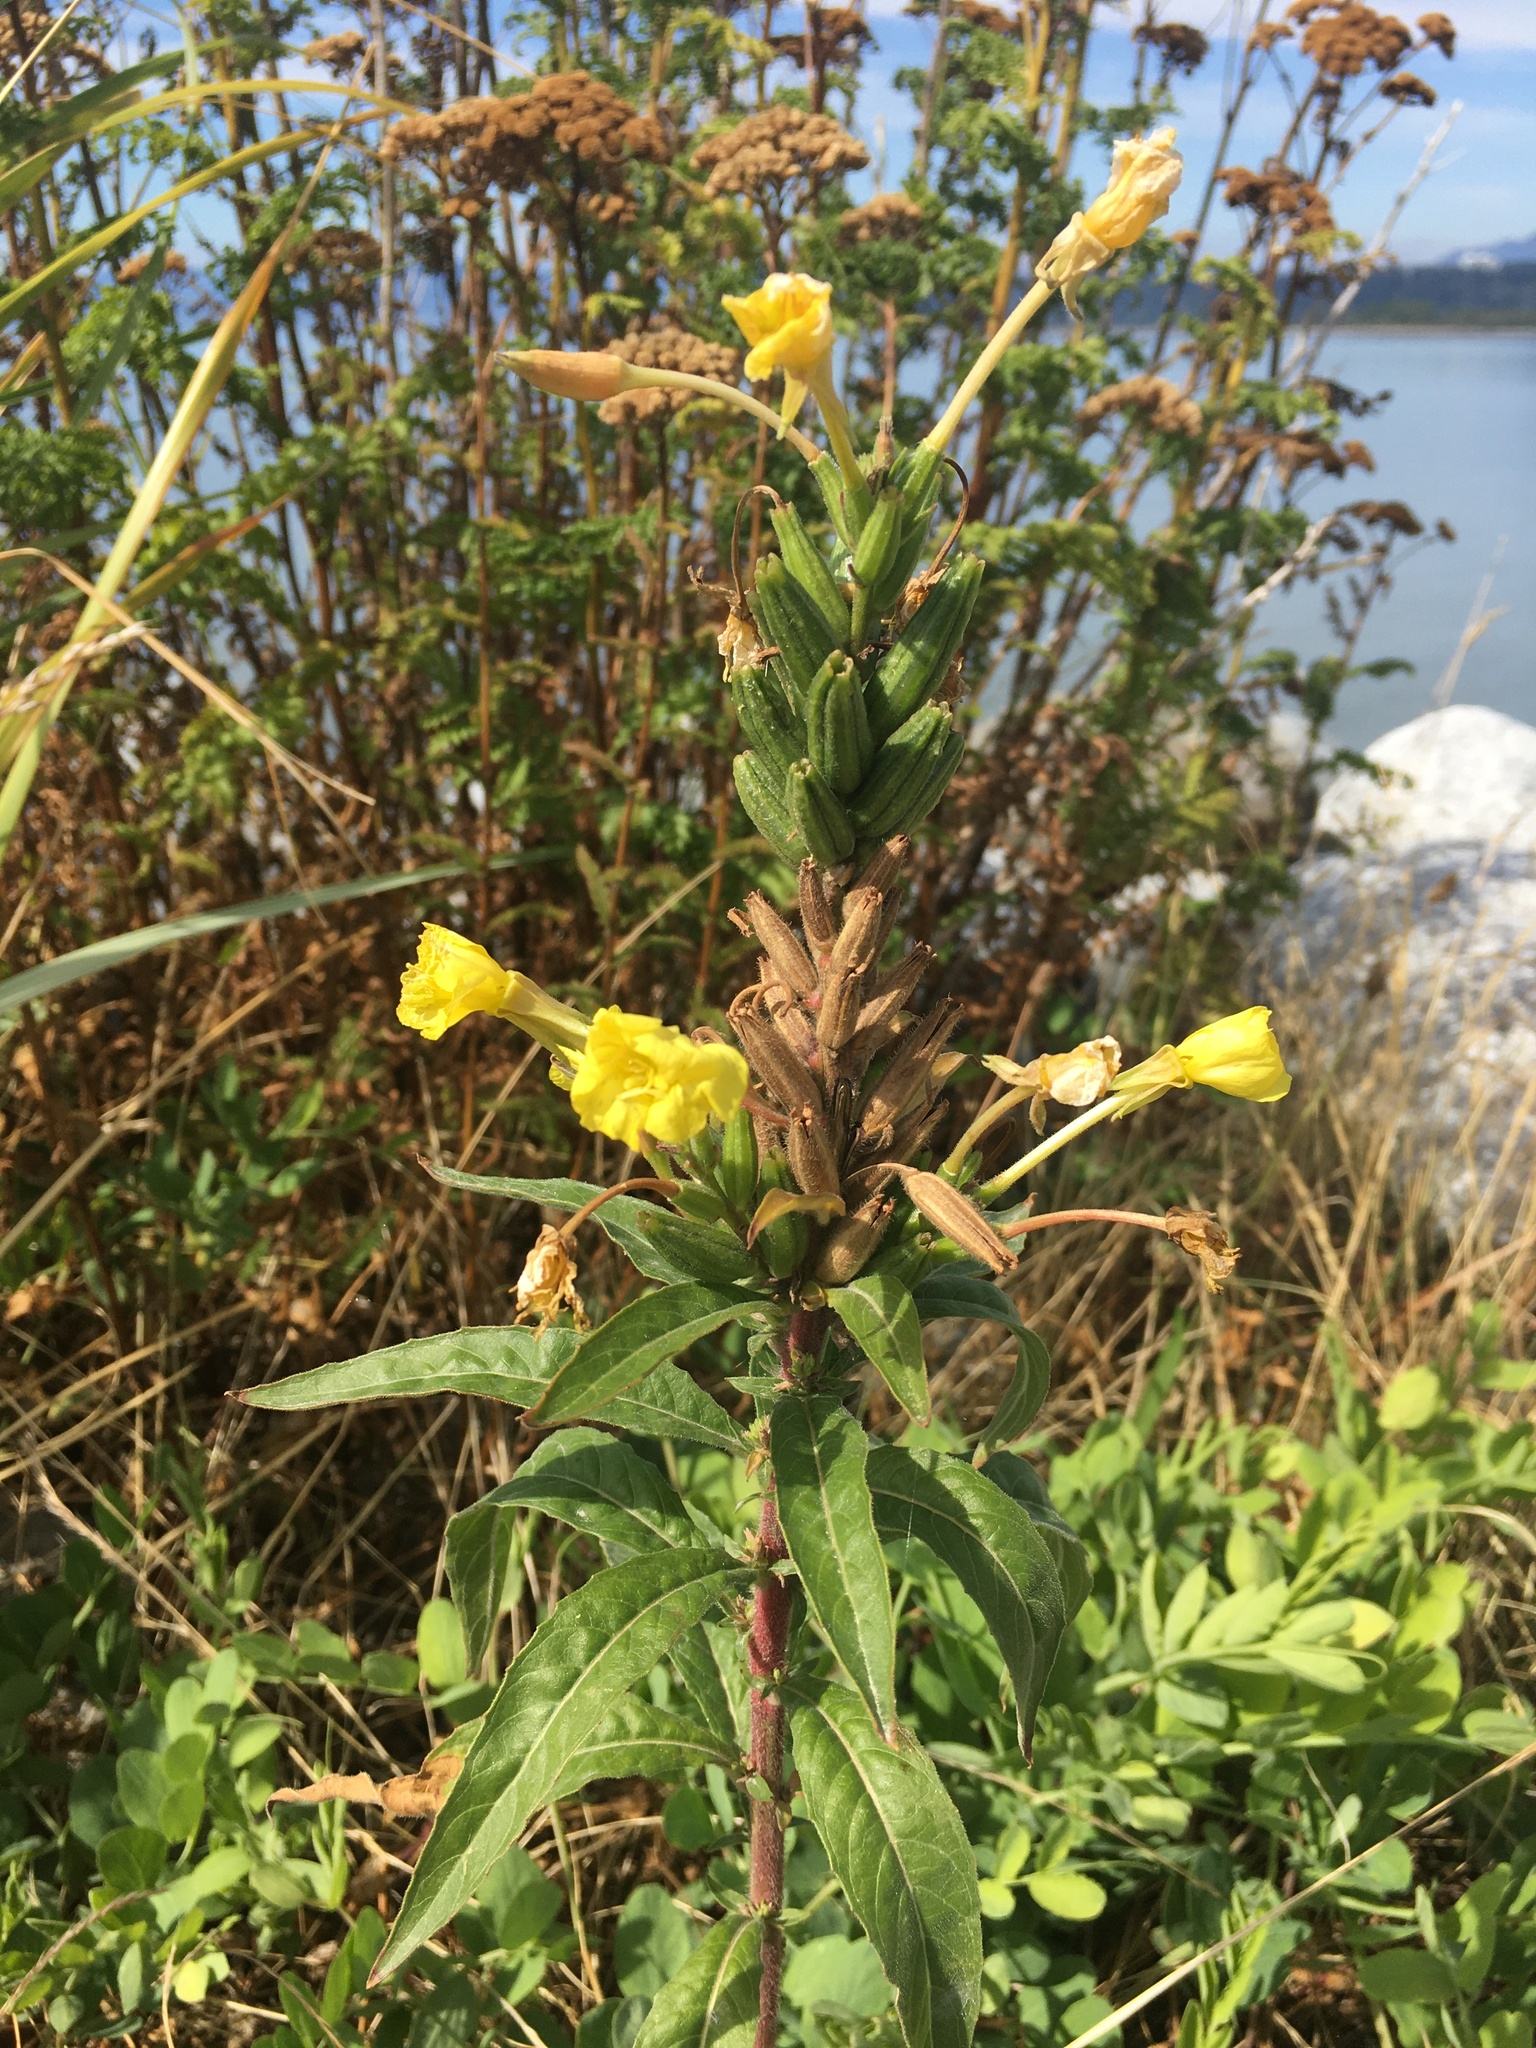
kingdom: Plantae
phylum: Tracheophyta
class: Magnoliopsida
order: Myrtales
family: Onagraceae
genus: Oenothera
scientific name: Oenothera biennis
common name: Common evening-primrose
